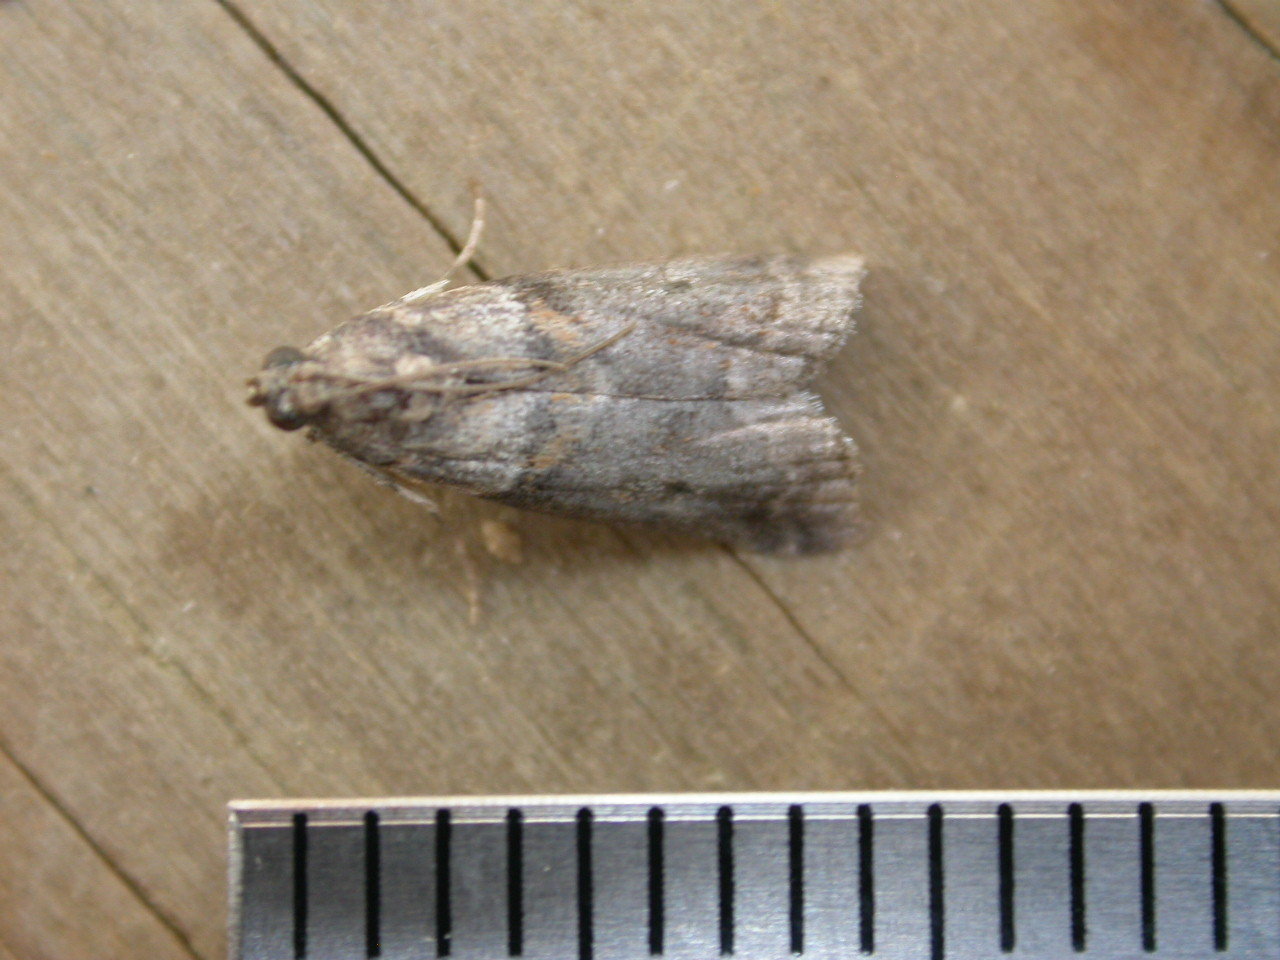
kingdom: Animalia
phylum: Arthropoda
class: Insecta
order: Lepidoptera
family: Pyralidae
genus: Acrobasis
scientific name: Acrobasis consociella
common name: Broad-barred knot-horn
